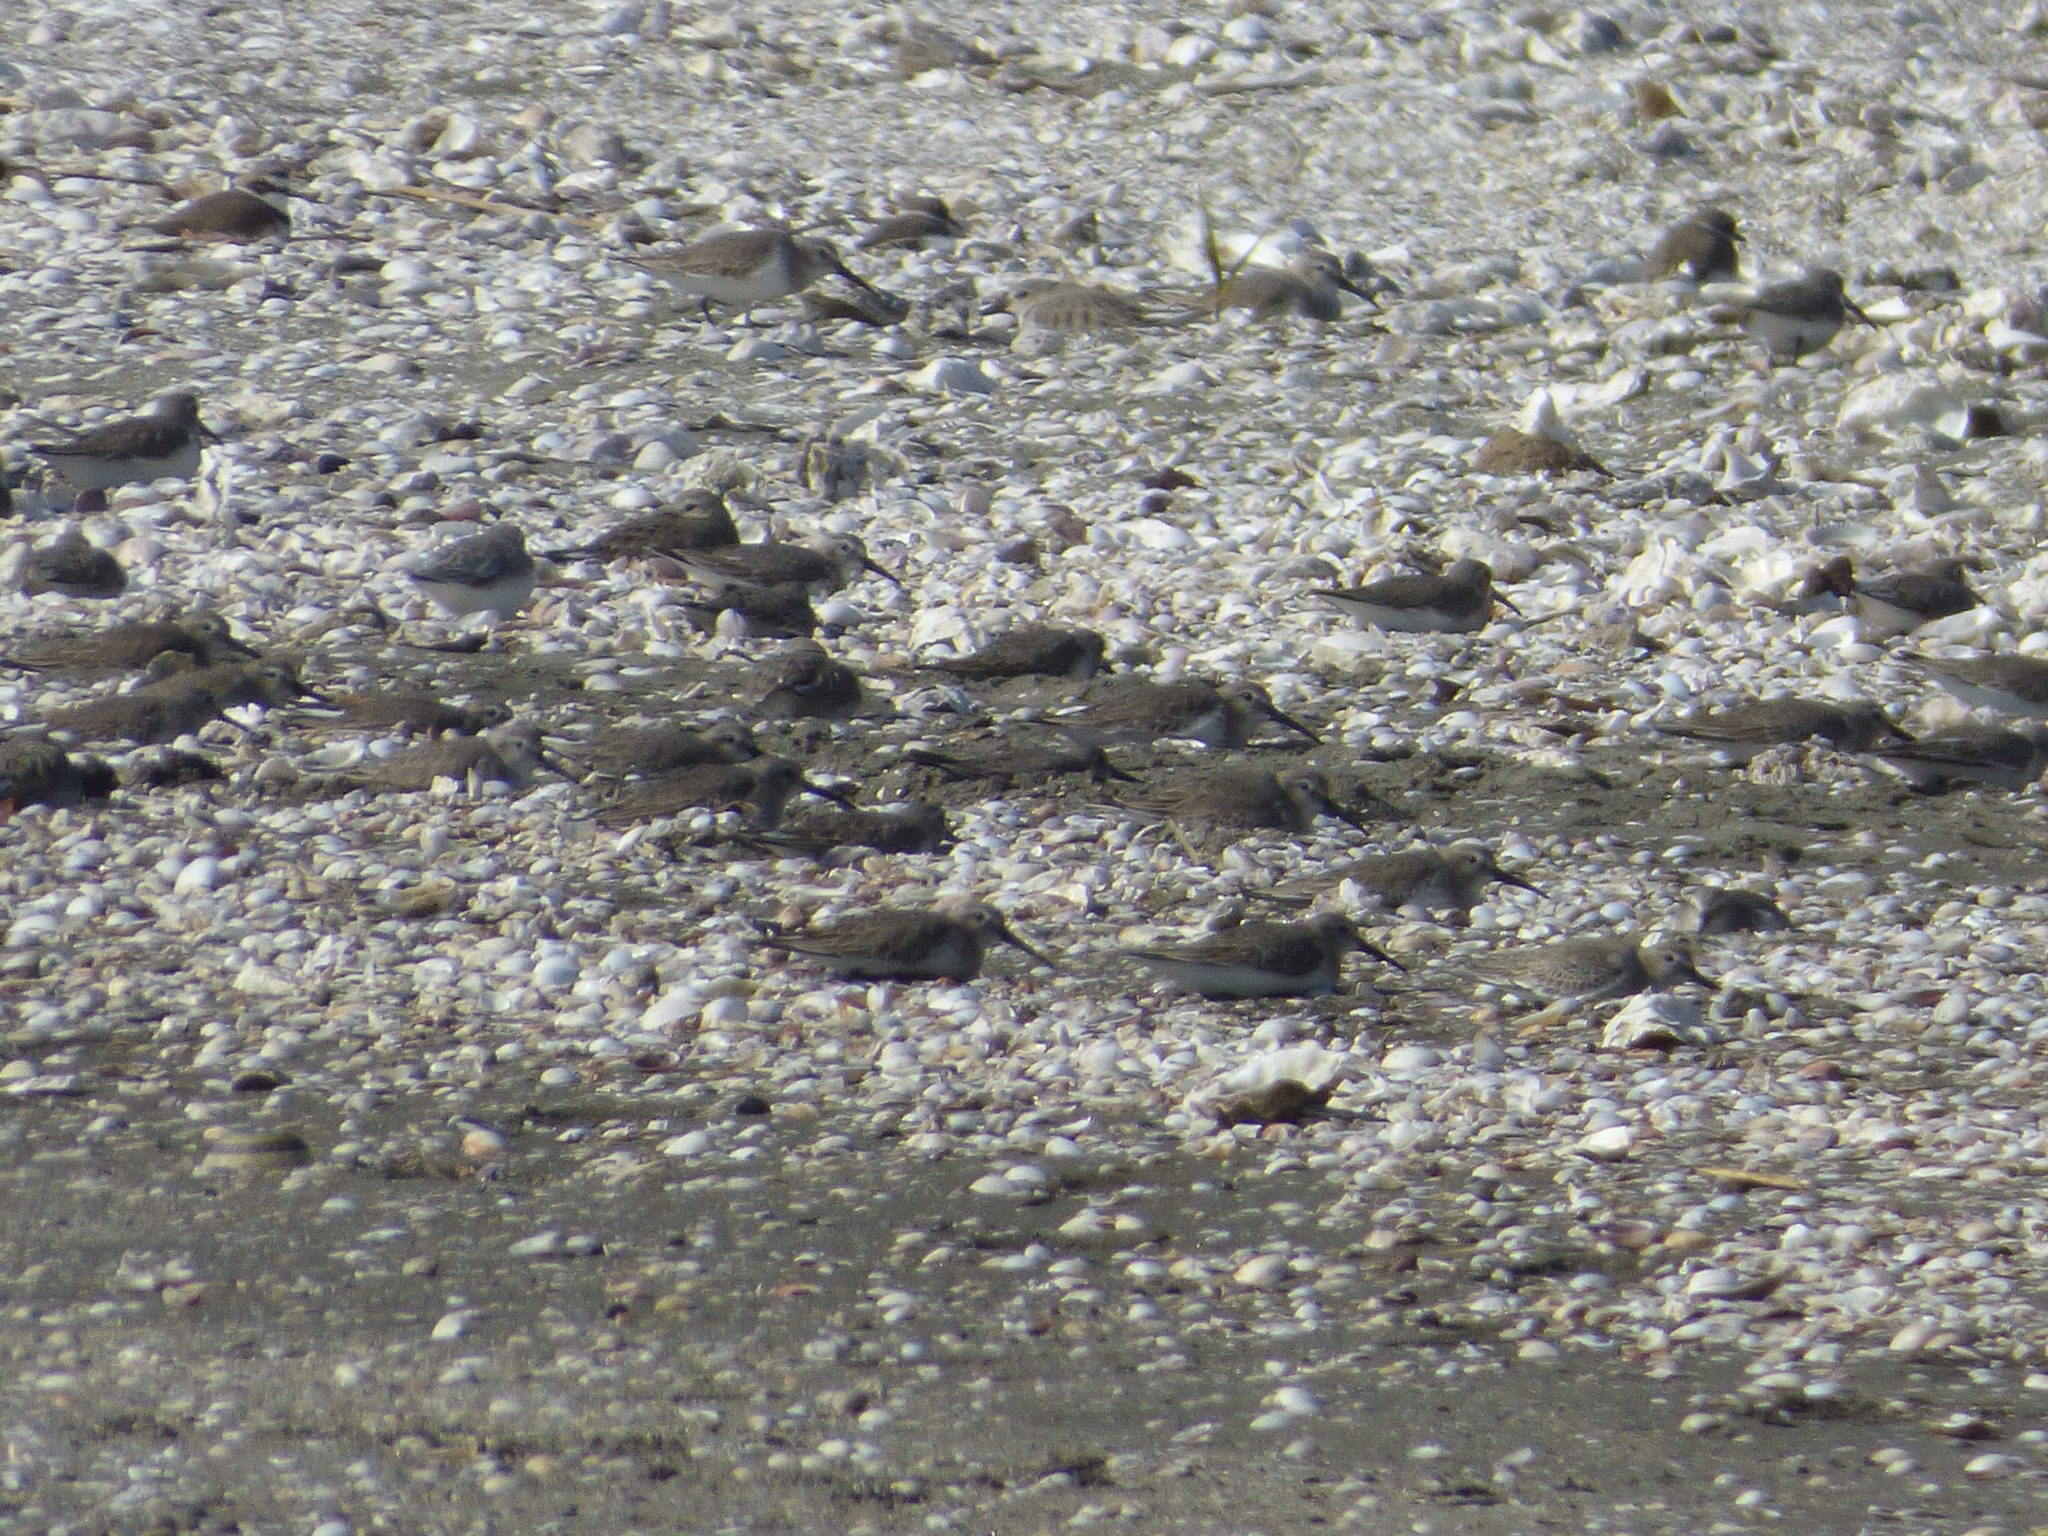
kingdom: Animalia
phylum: Chordata
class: Aves
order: Charadriiformes
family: Scolopacidae
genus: Calidris
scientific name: Calidris alpina
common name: Dunlin
